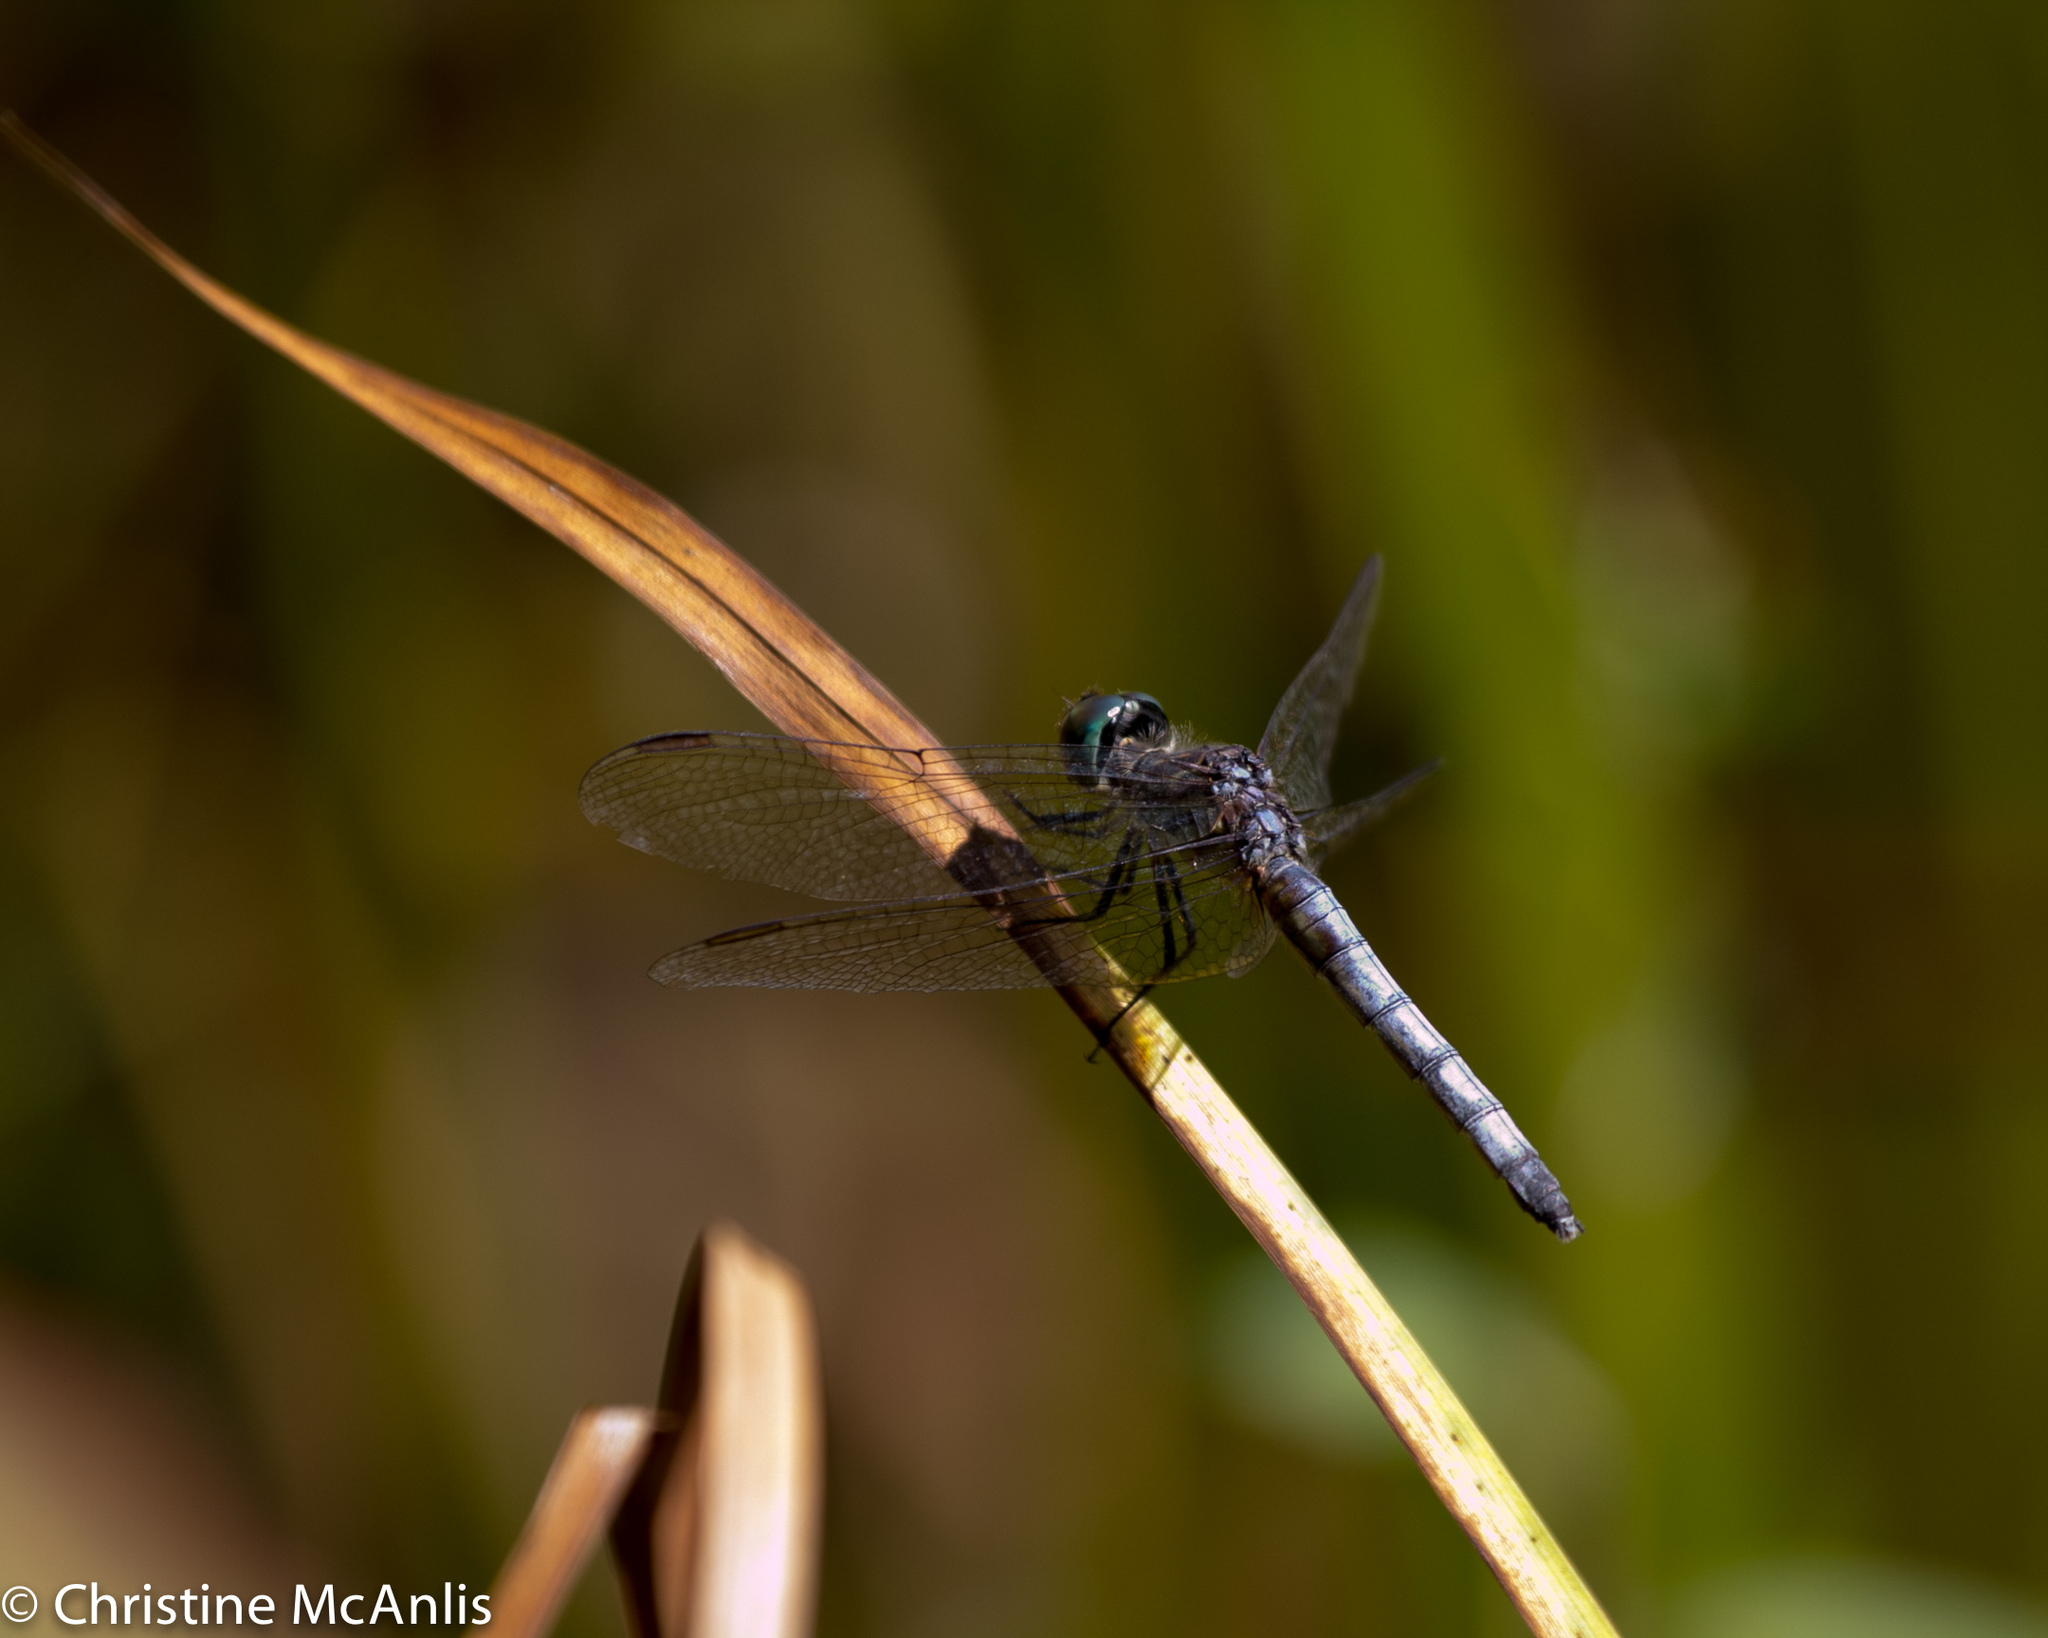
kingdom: Animalia
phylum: Arthropoda
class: Insecta
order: Odonata
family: Libellulidae
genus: Pachydiplax
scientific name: Pachydiplax longipennis
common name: Blue dasher
